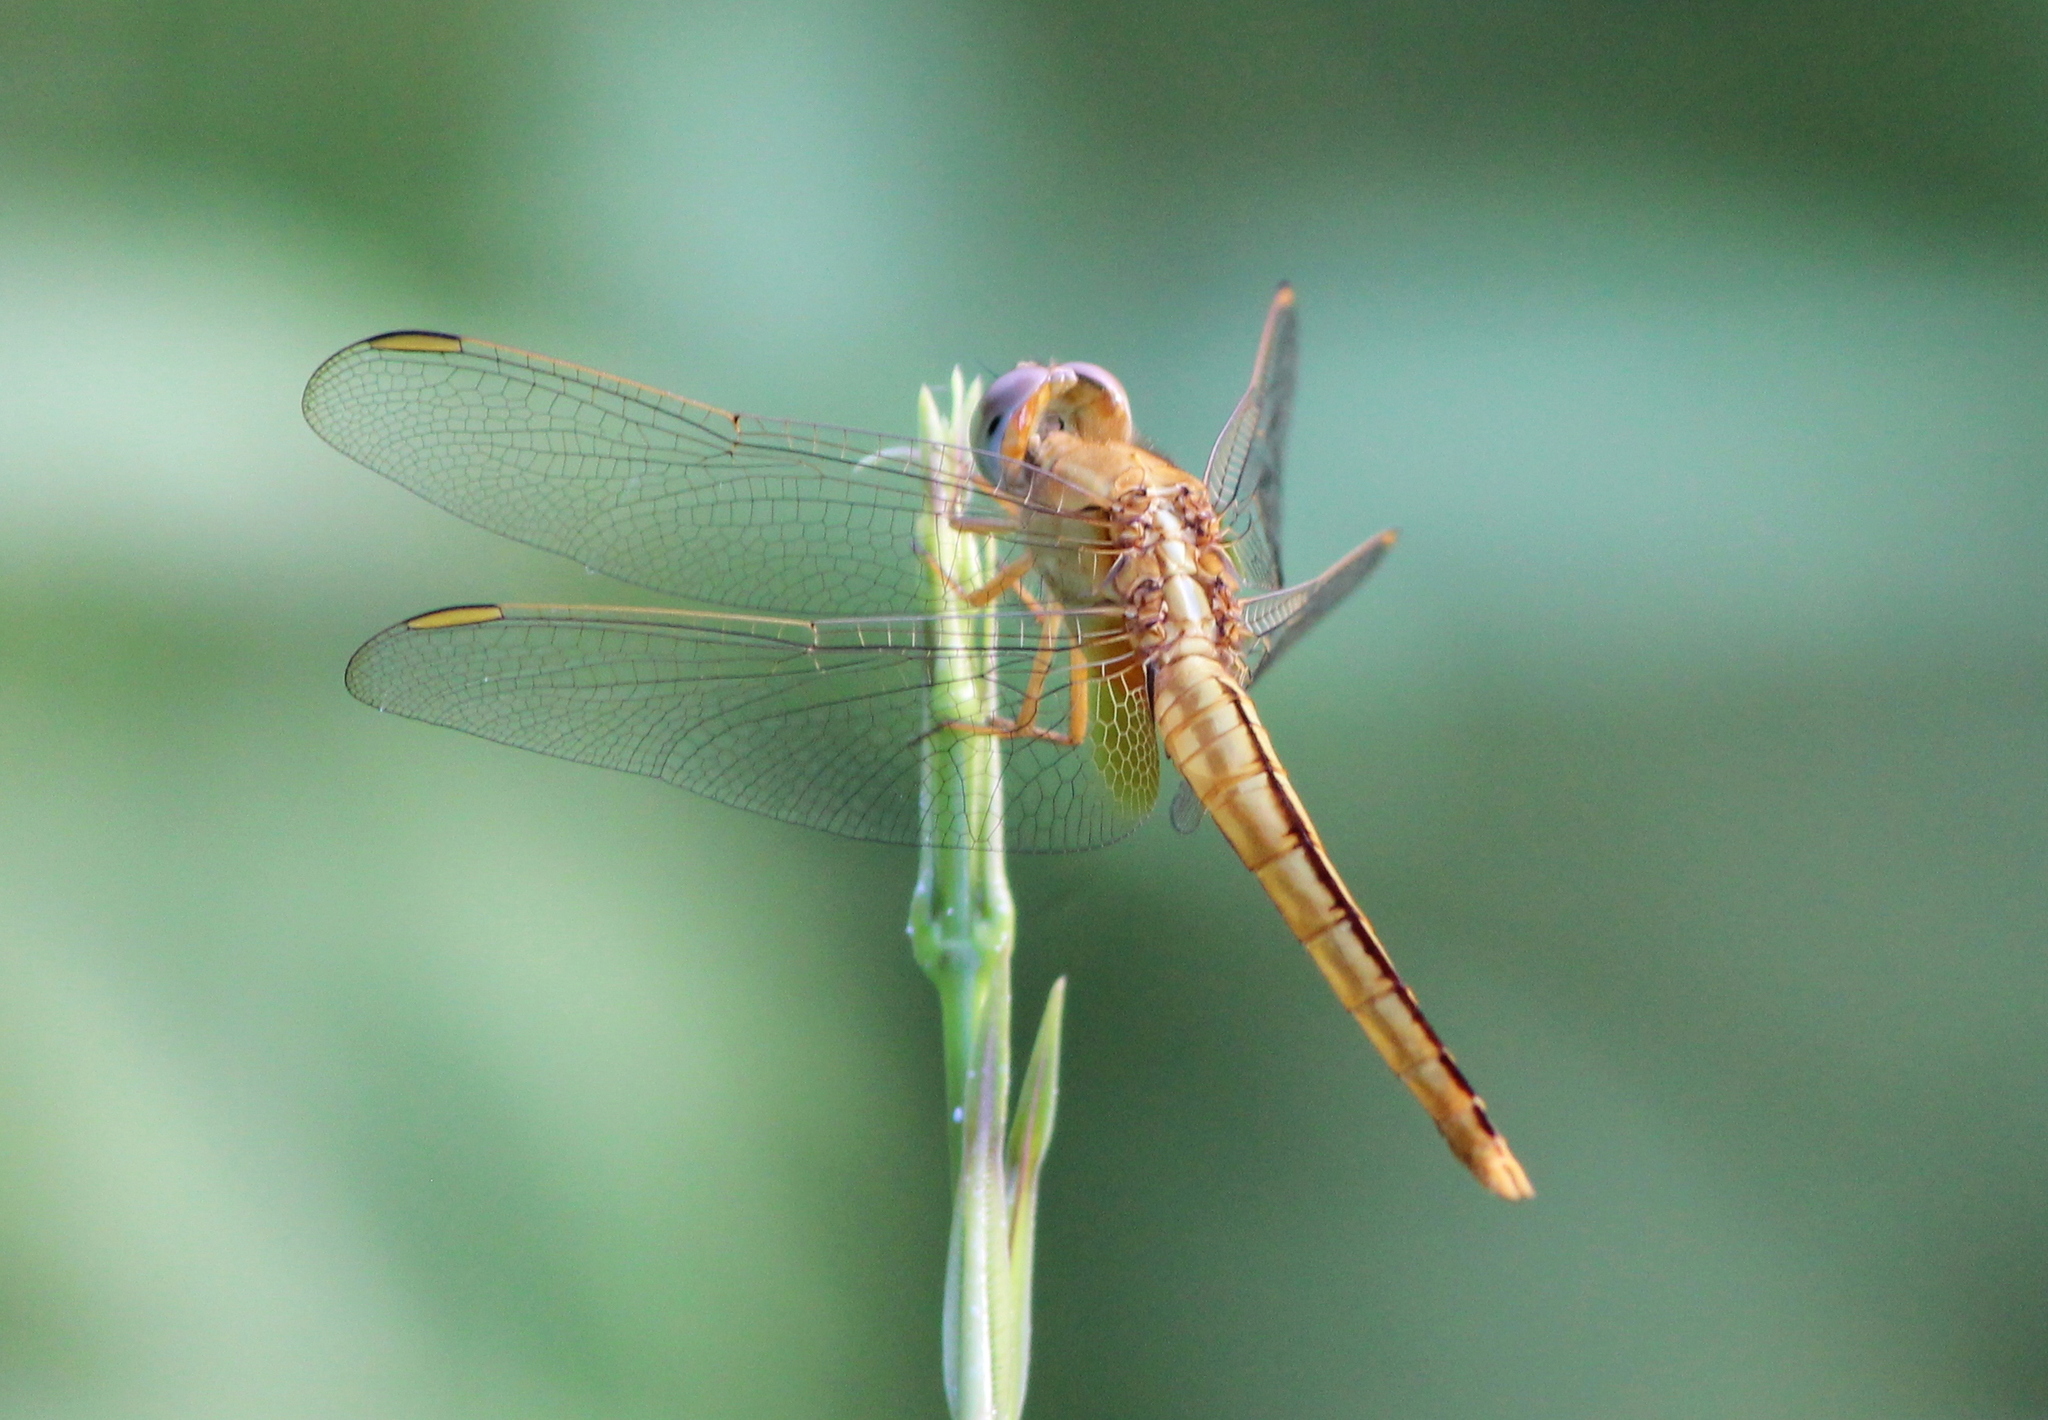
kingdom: Animalia
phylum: Arthropoda
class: Insecta
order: Odonata
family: Libellulidae
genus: Crocothemis
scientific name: Crocothemis servilia
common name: Scarlet skimmer
